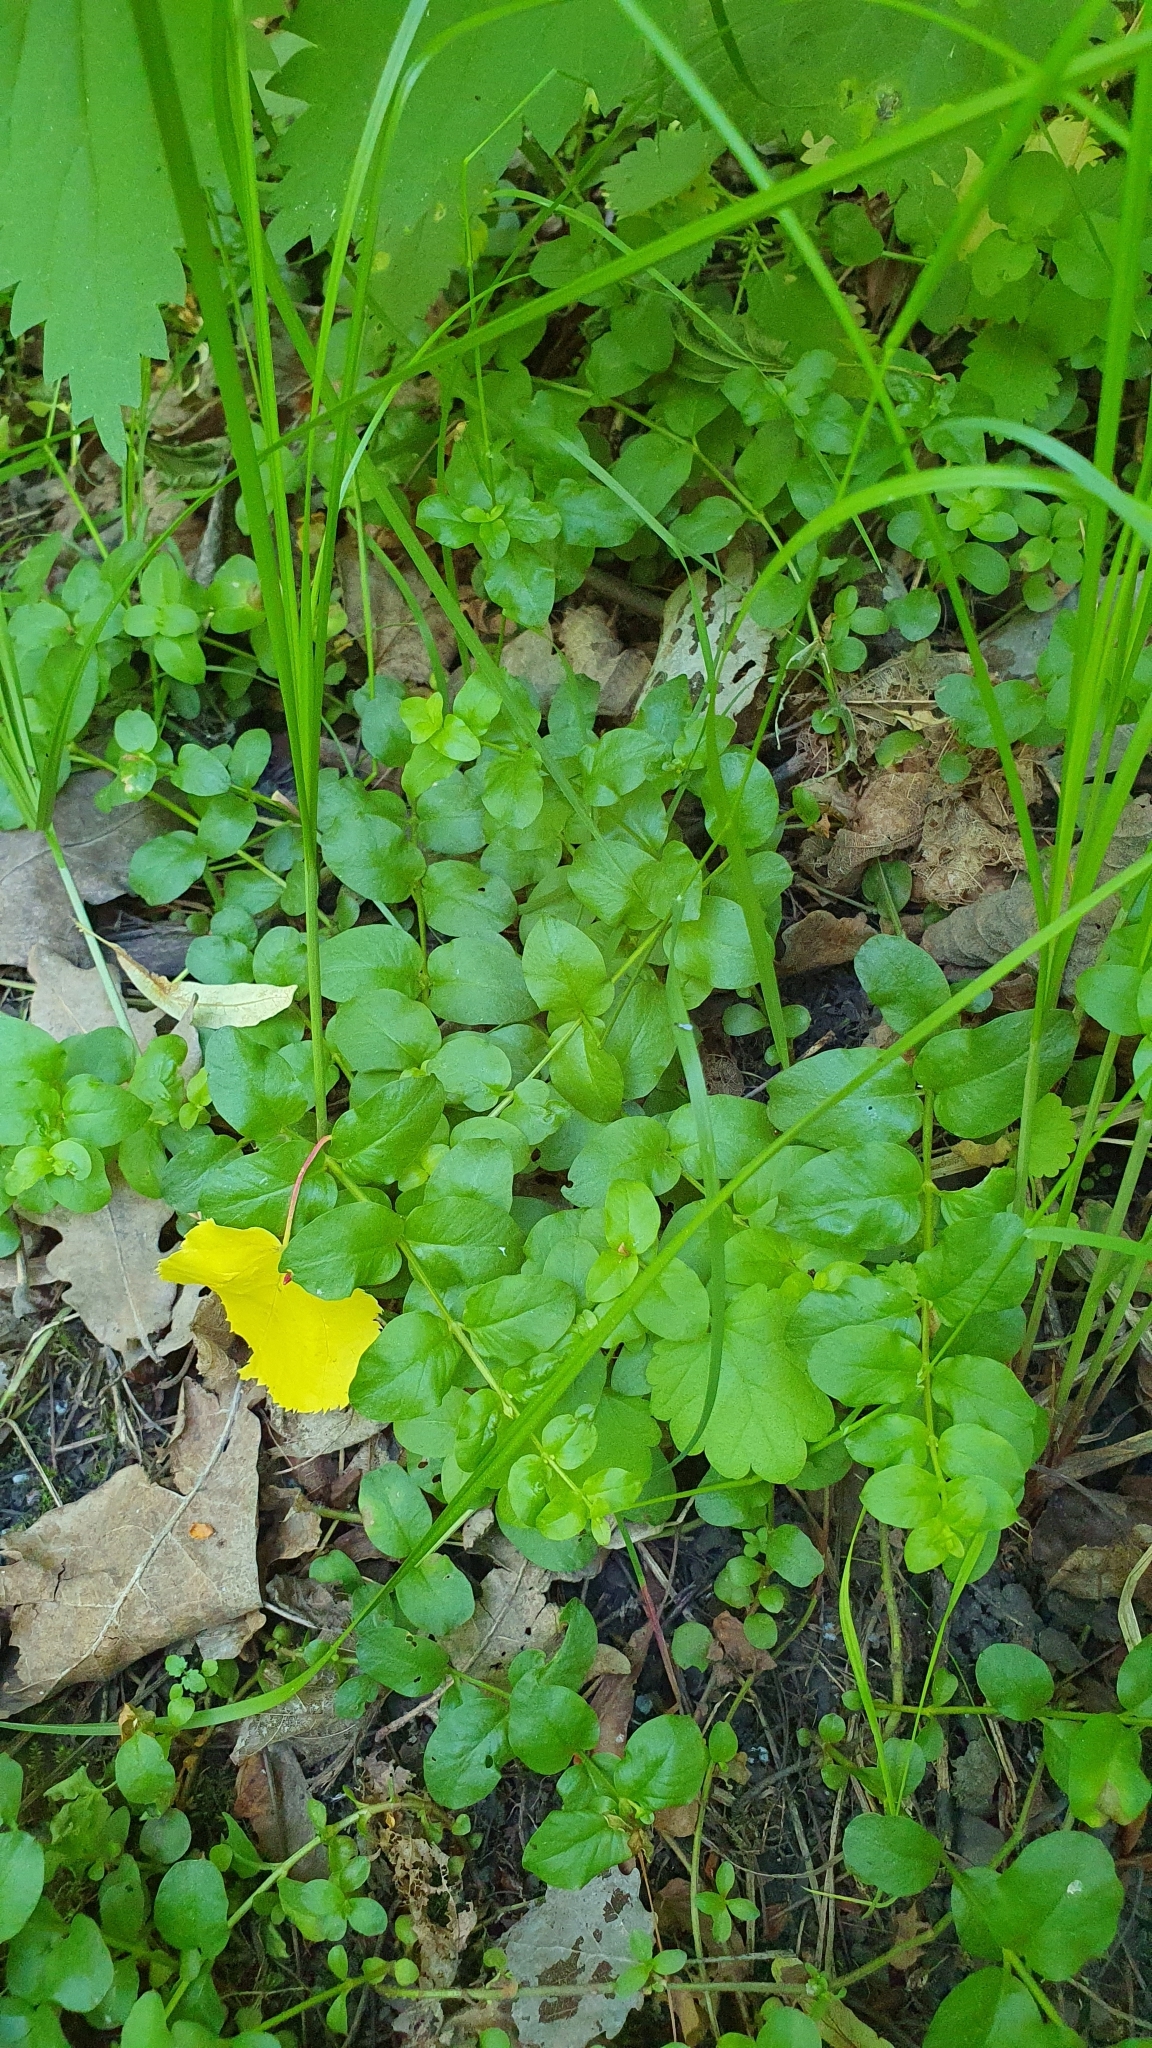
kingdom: Plantae
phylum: Tracheophyta
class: Magnoliopsida
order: Ericales
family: Primulaceae
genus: Lysimachia
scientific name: Lysimachia nummularia
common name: Moneywort
